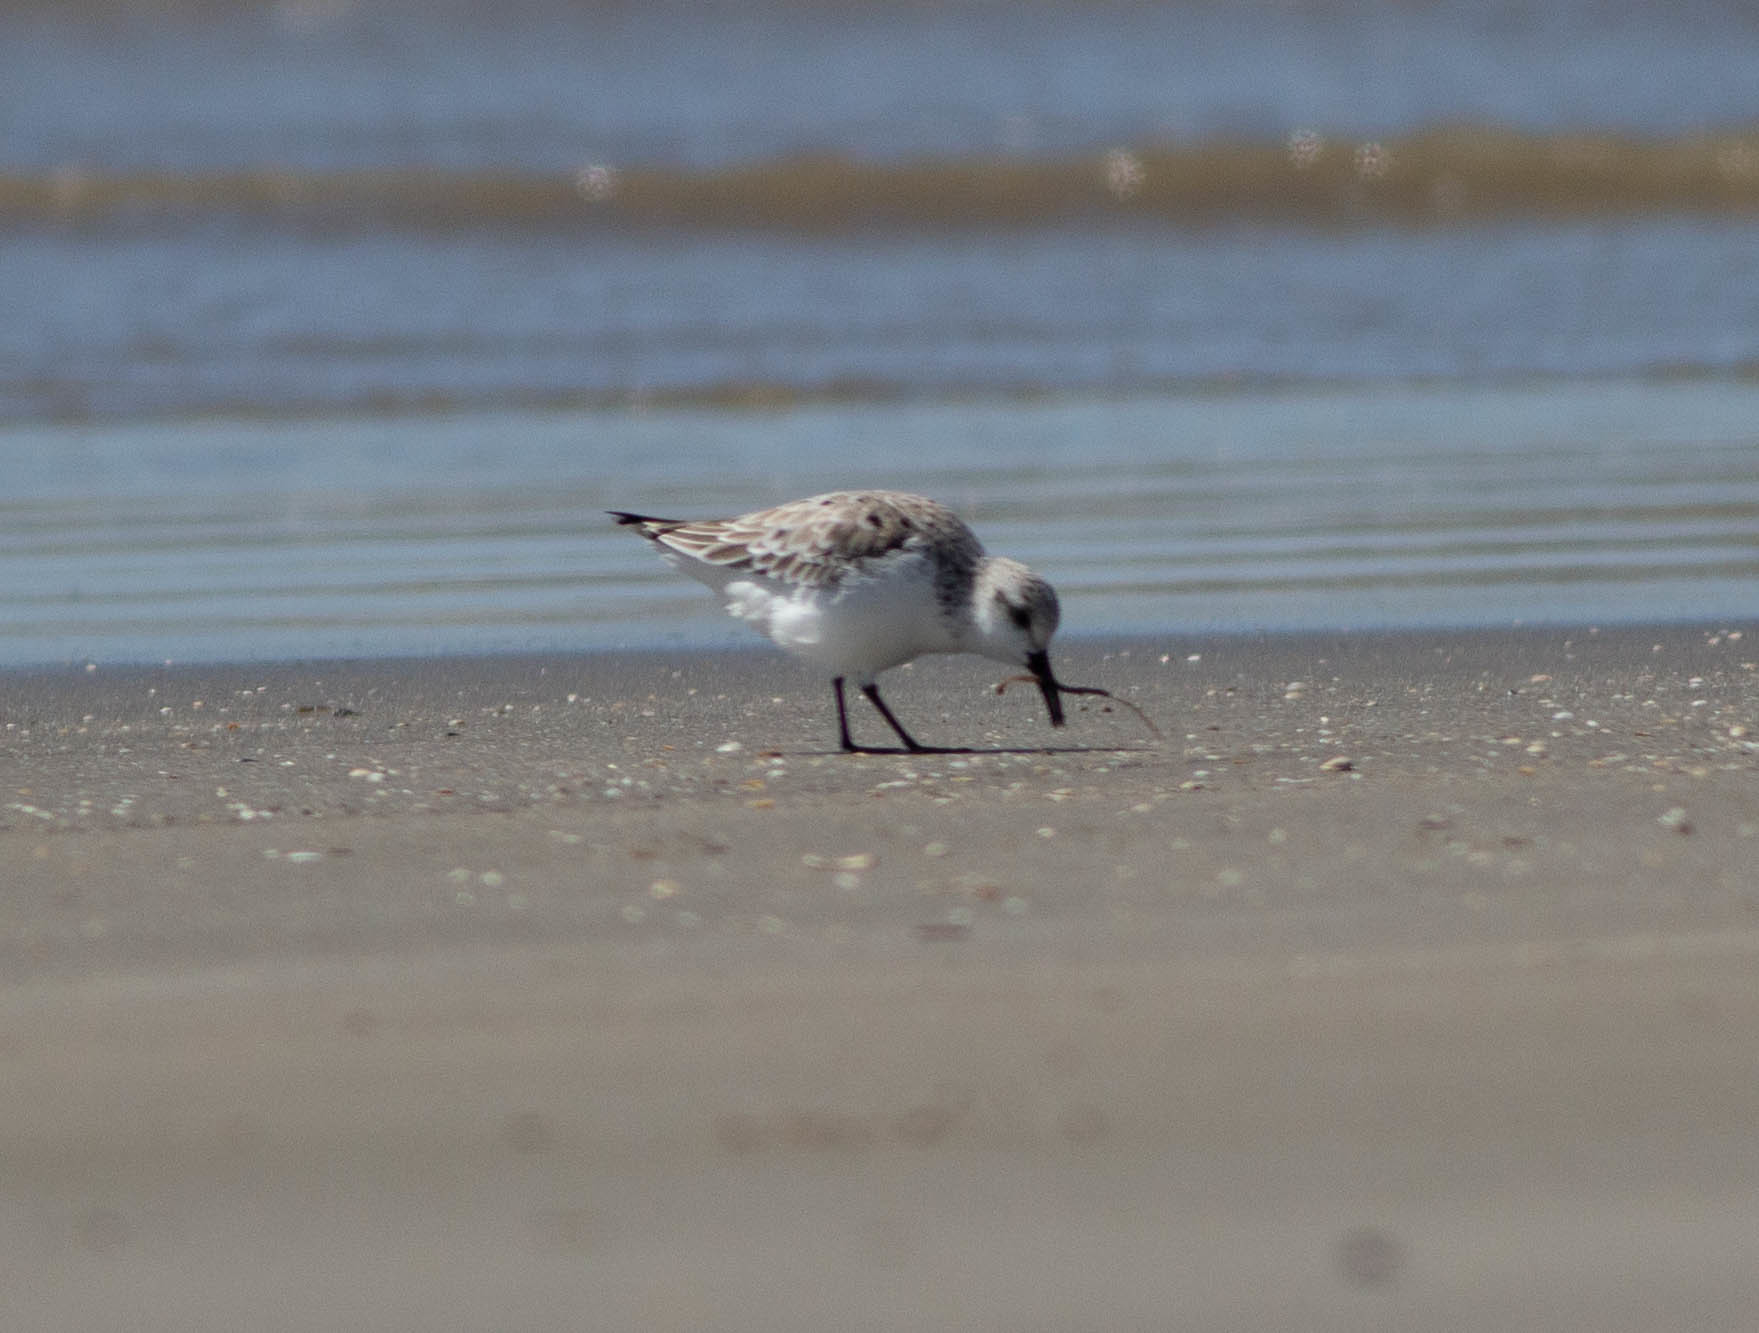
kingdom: Animalia
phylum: Chordata
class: Aves
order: Charadriiformes
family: Scolopacidae
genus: Calidris
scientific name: Calidris alba
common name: Sanderling
